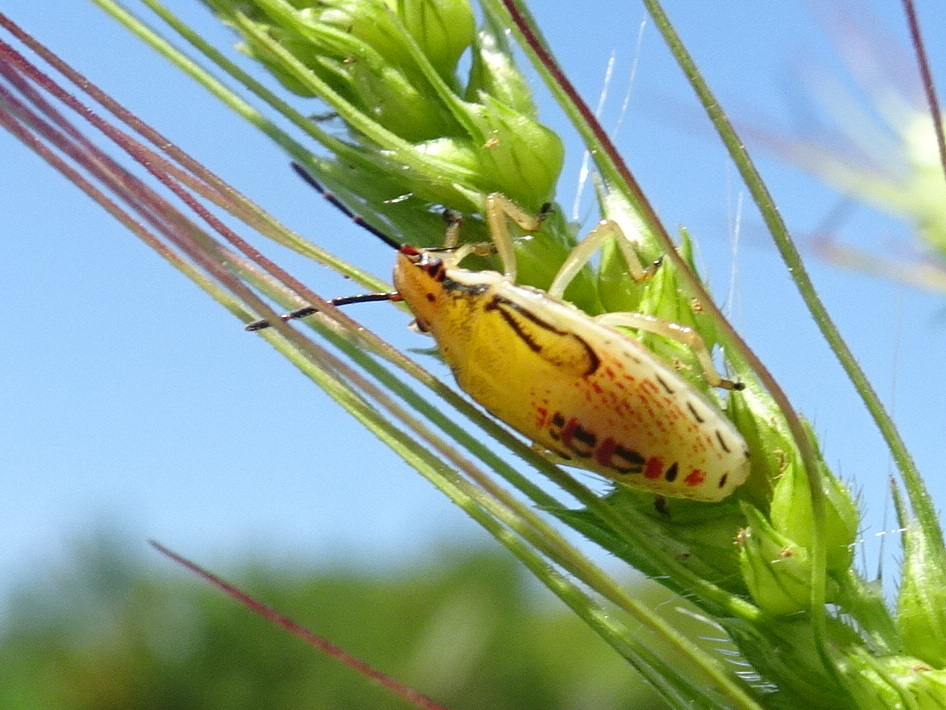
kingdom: Animalia
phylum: Arthropoda
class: Insecta
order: Hemiptera
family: Pentatomidae
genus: Oebalus
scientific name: Oebalus pugnax
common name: Rice stink bug
